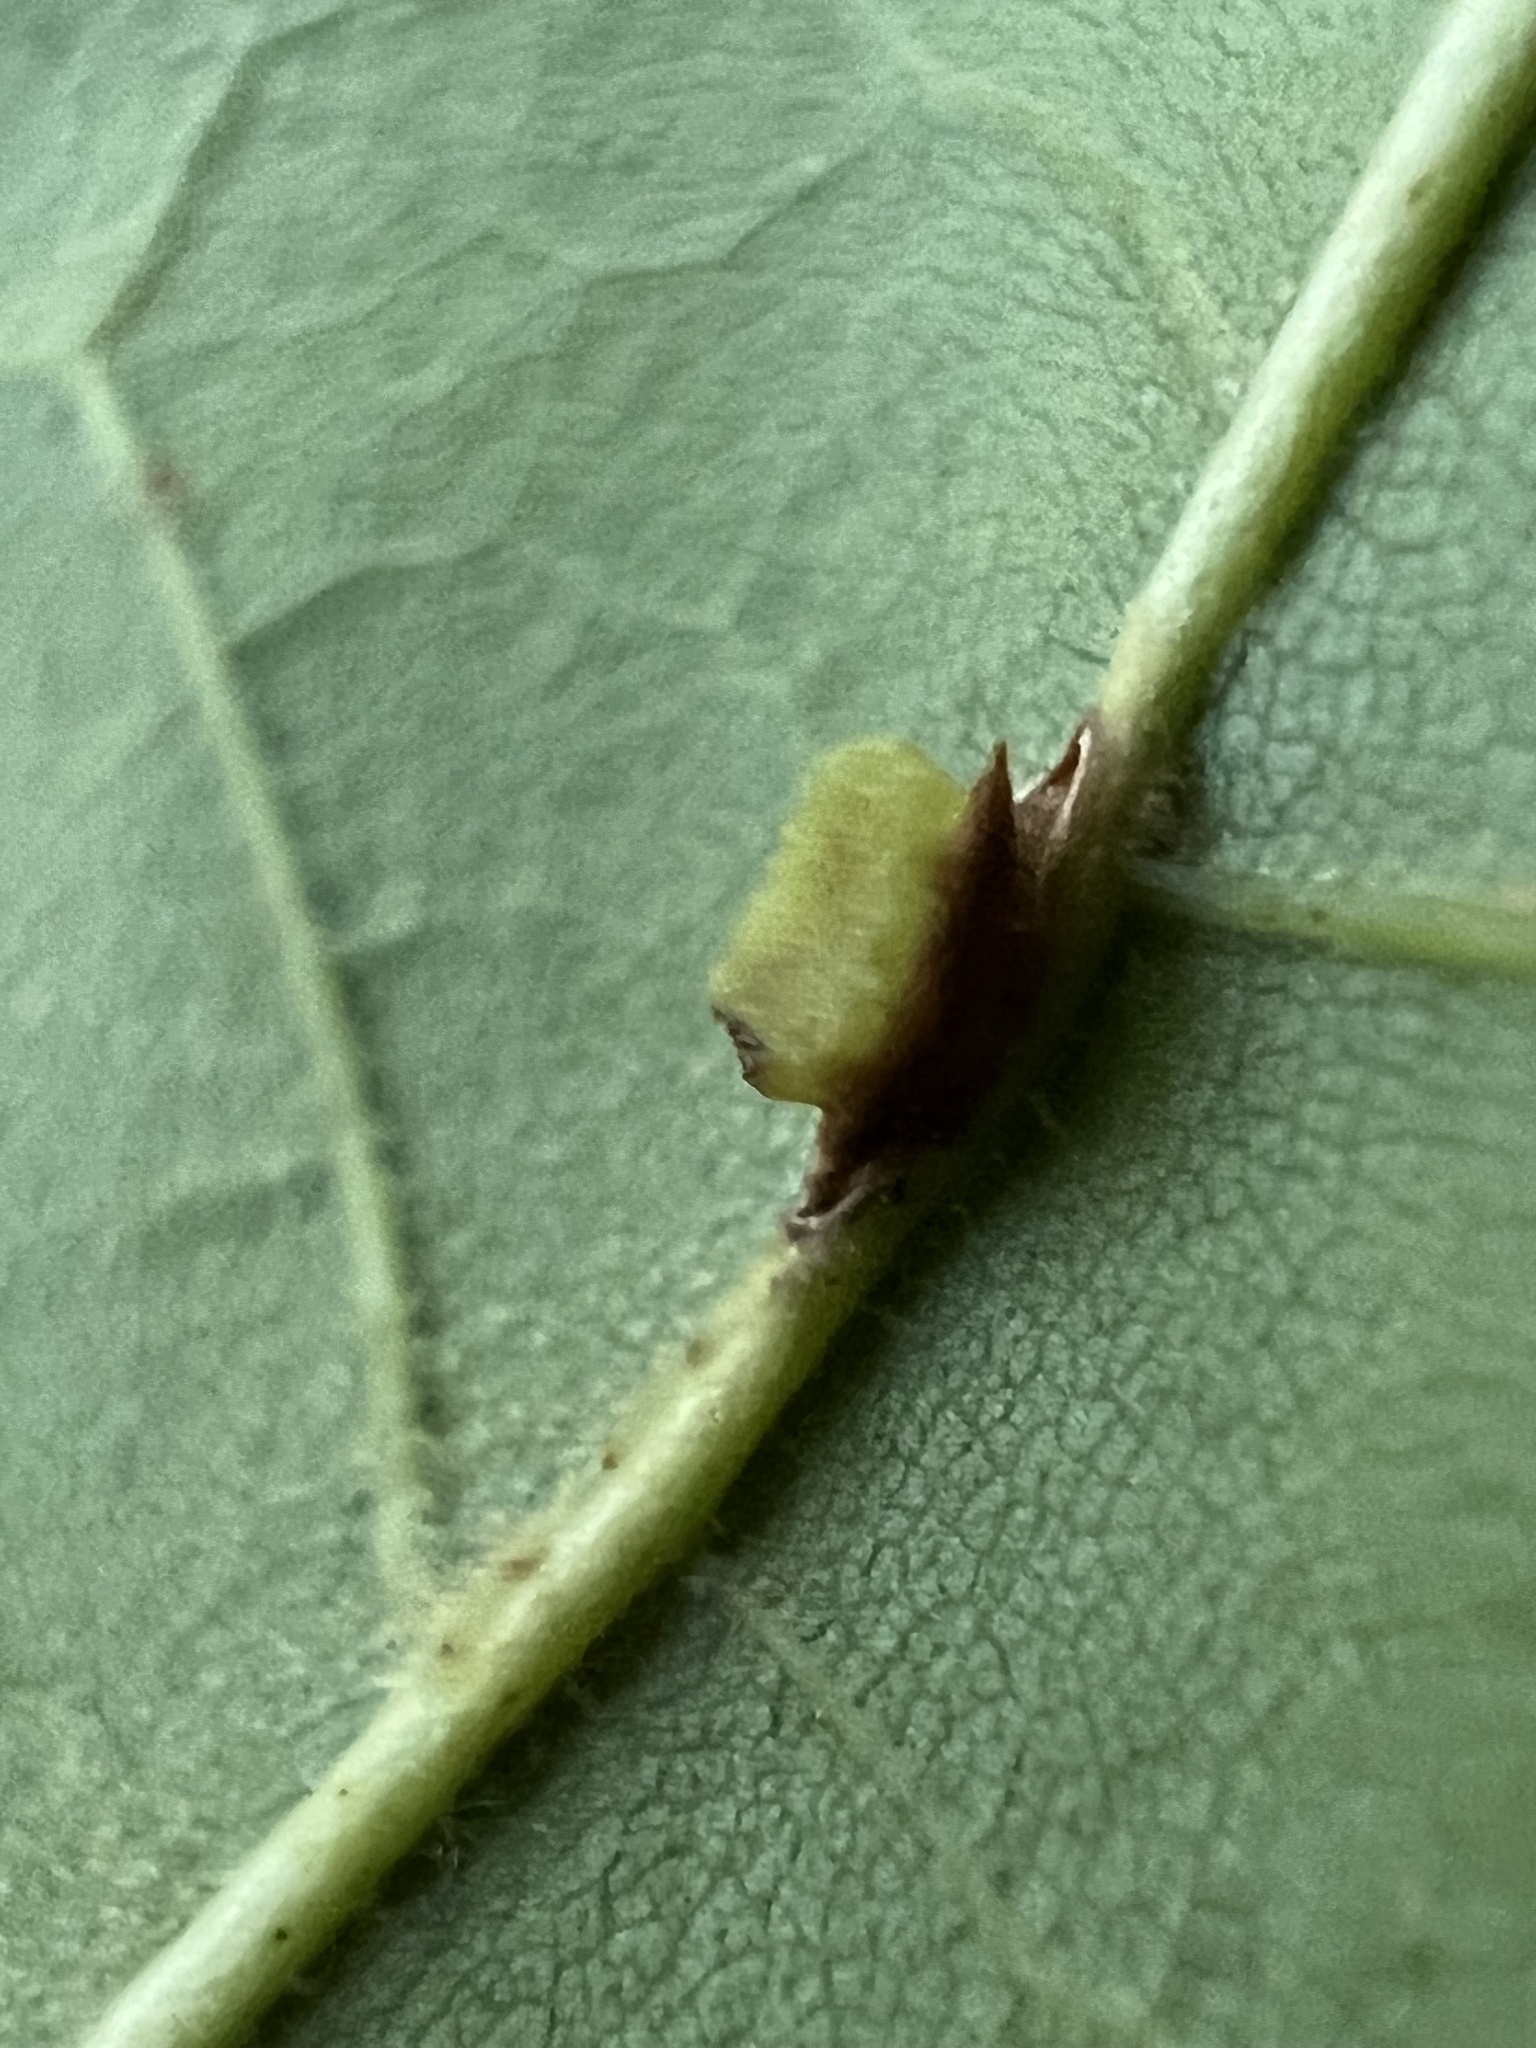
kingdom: Animalia
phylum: Arthropoda
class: Insecta
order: Hymenoptera
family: Cynipidae
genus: Kokkocynips
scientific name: Kokkocynips rileyi
